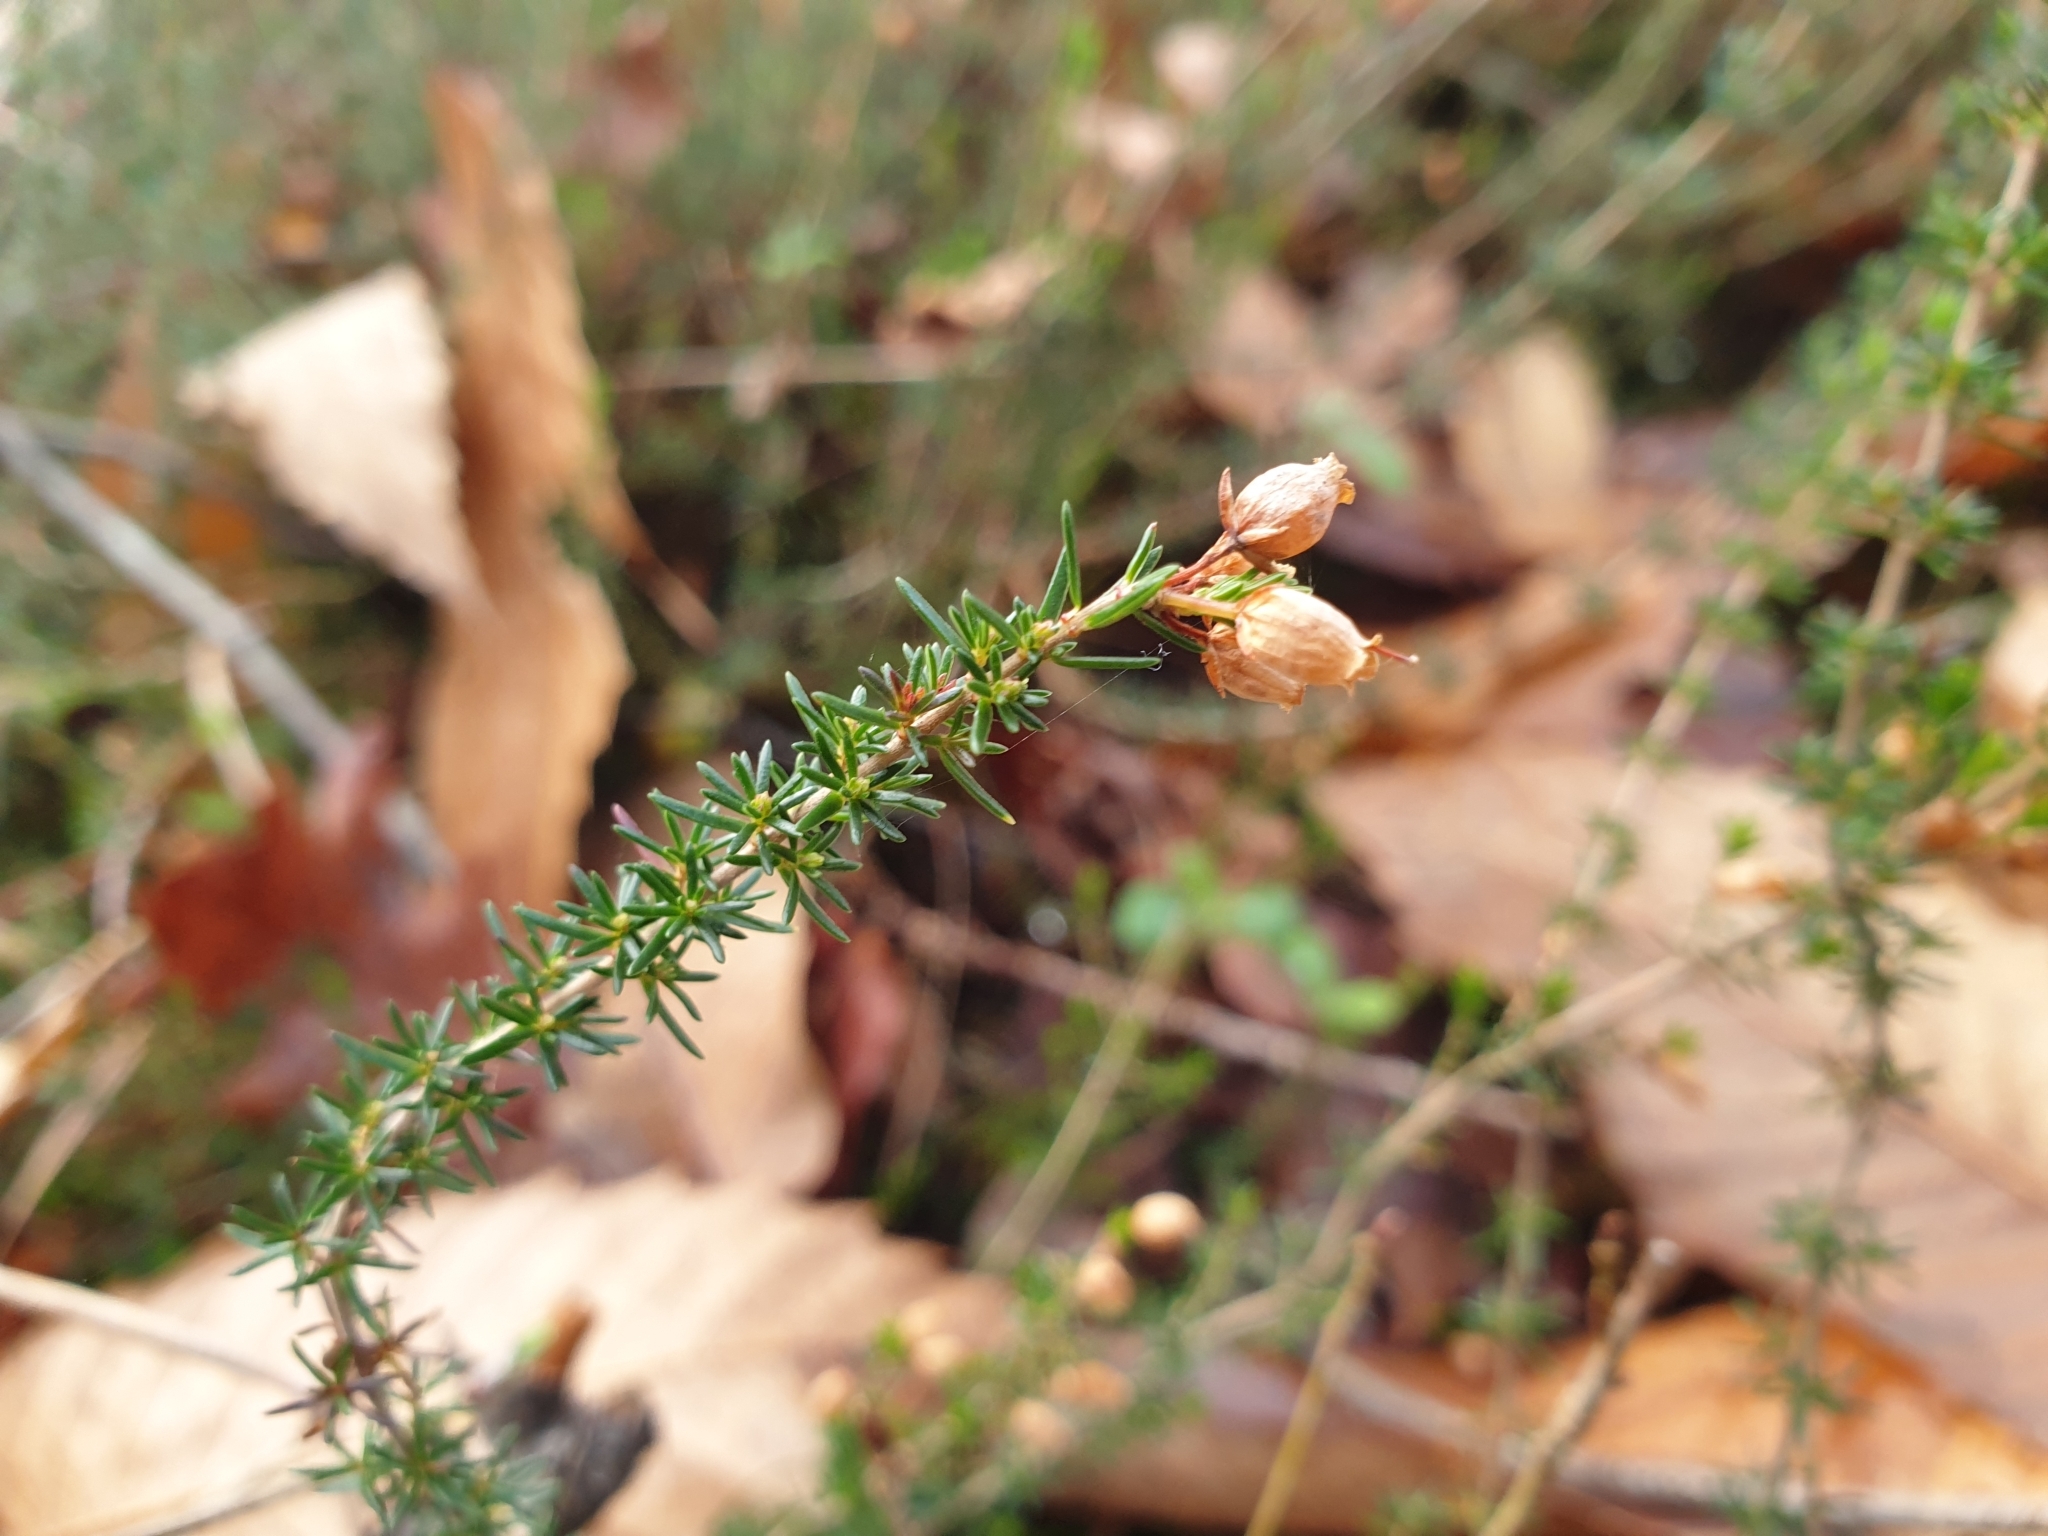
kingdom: Plantae
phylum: Tracheophyta
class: Magnoliopsida
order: Ericales
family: Ericaceae
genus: Erica
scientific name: Erica cinerea
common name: Bell heather
